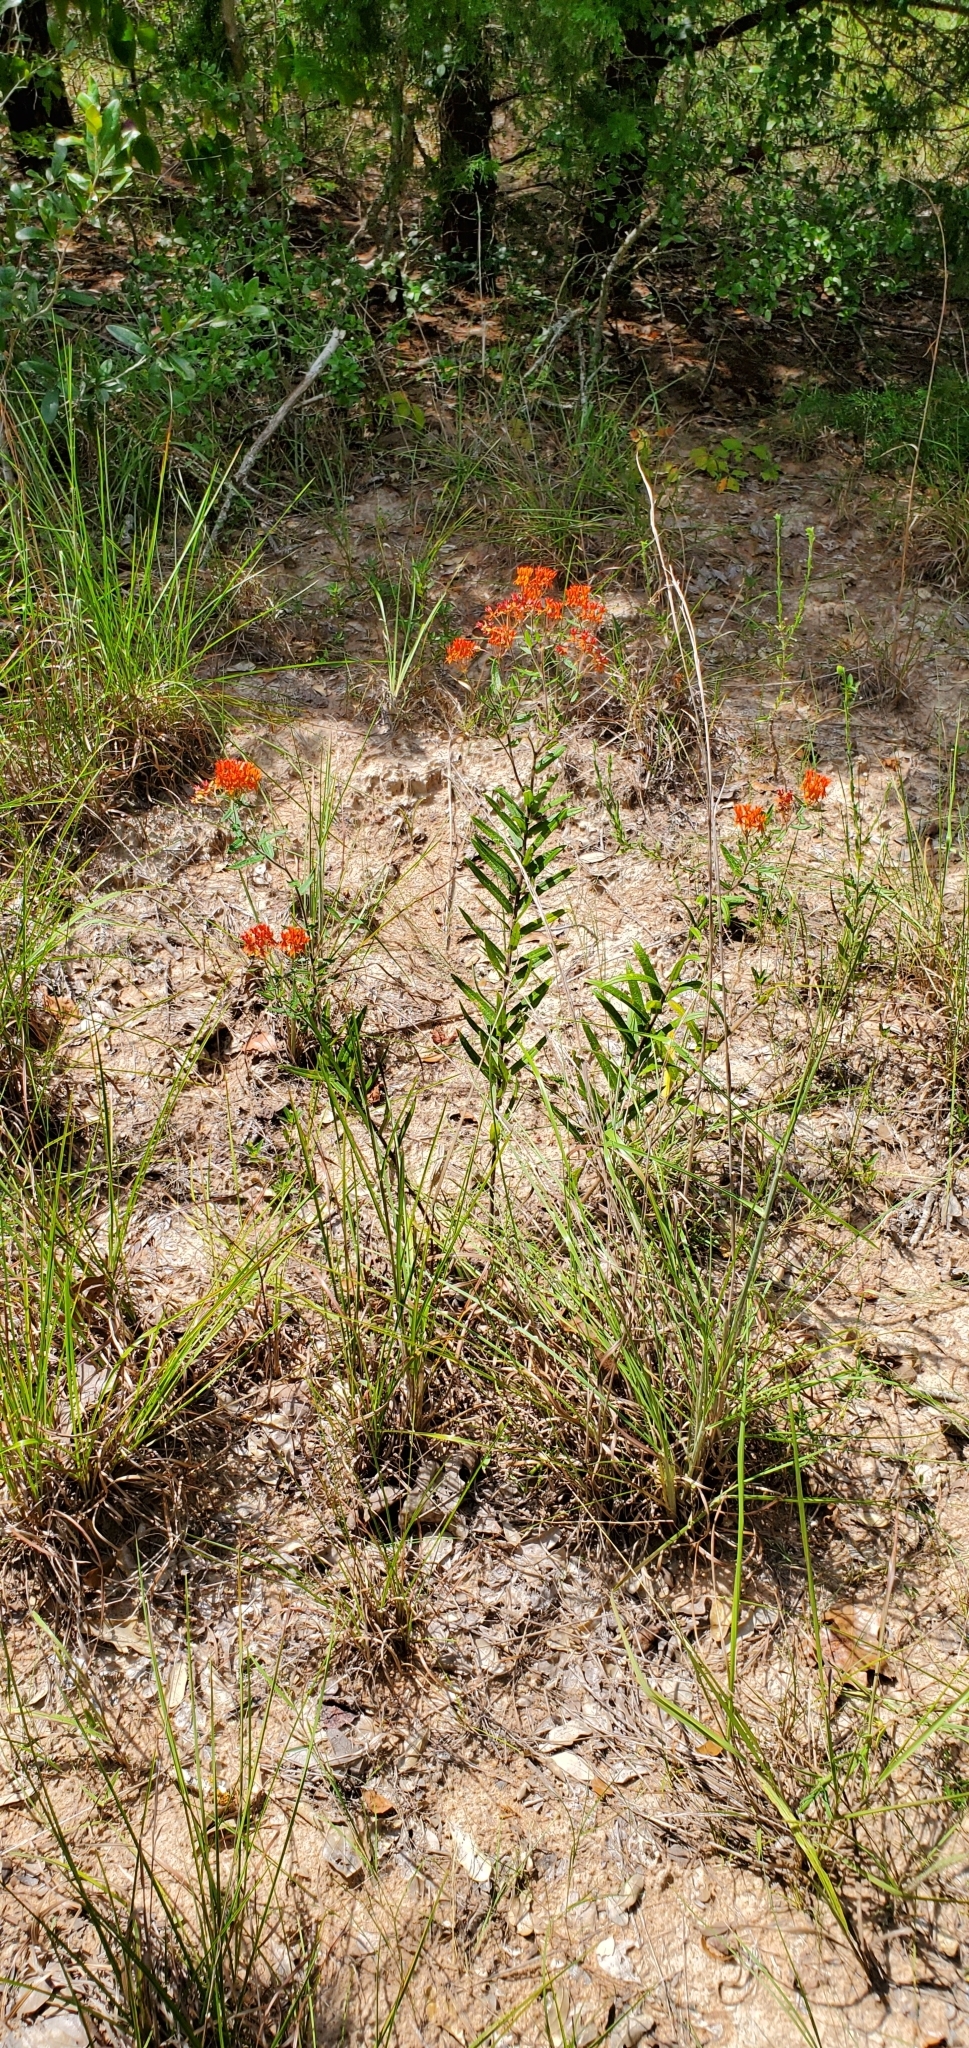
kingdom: Plantae
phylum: Tracheophyta
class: Magnoliopsida
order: Gentianales
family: Apocynaceae
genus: Asclepias
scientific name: Asclepias tuberosa
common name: Butterfly milkweed
